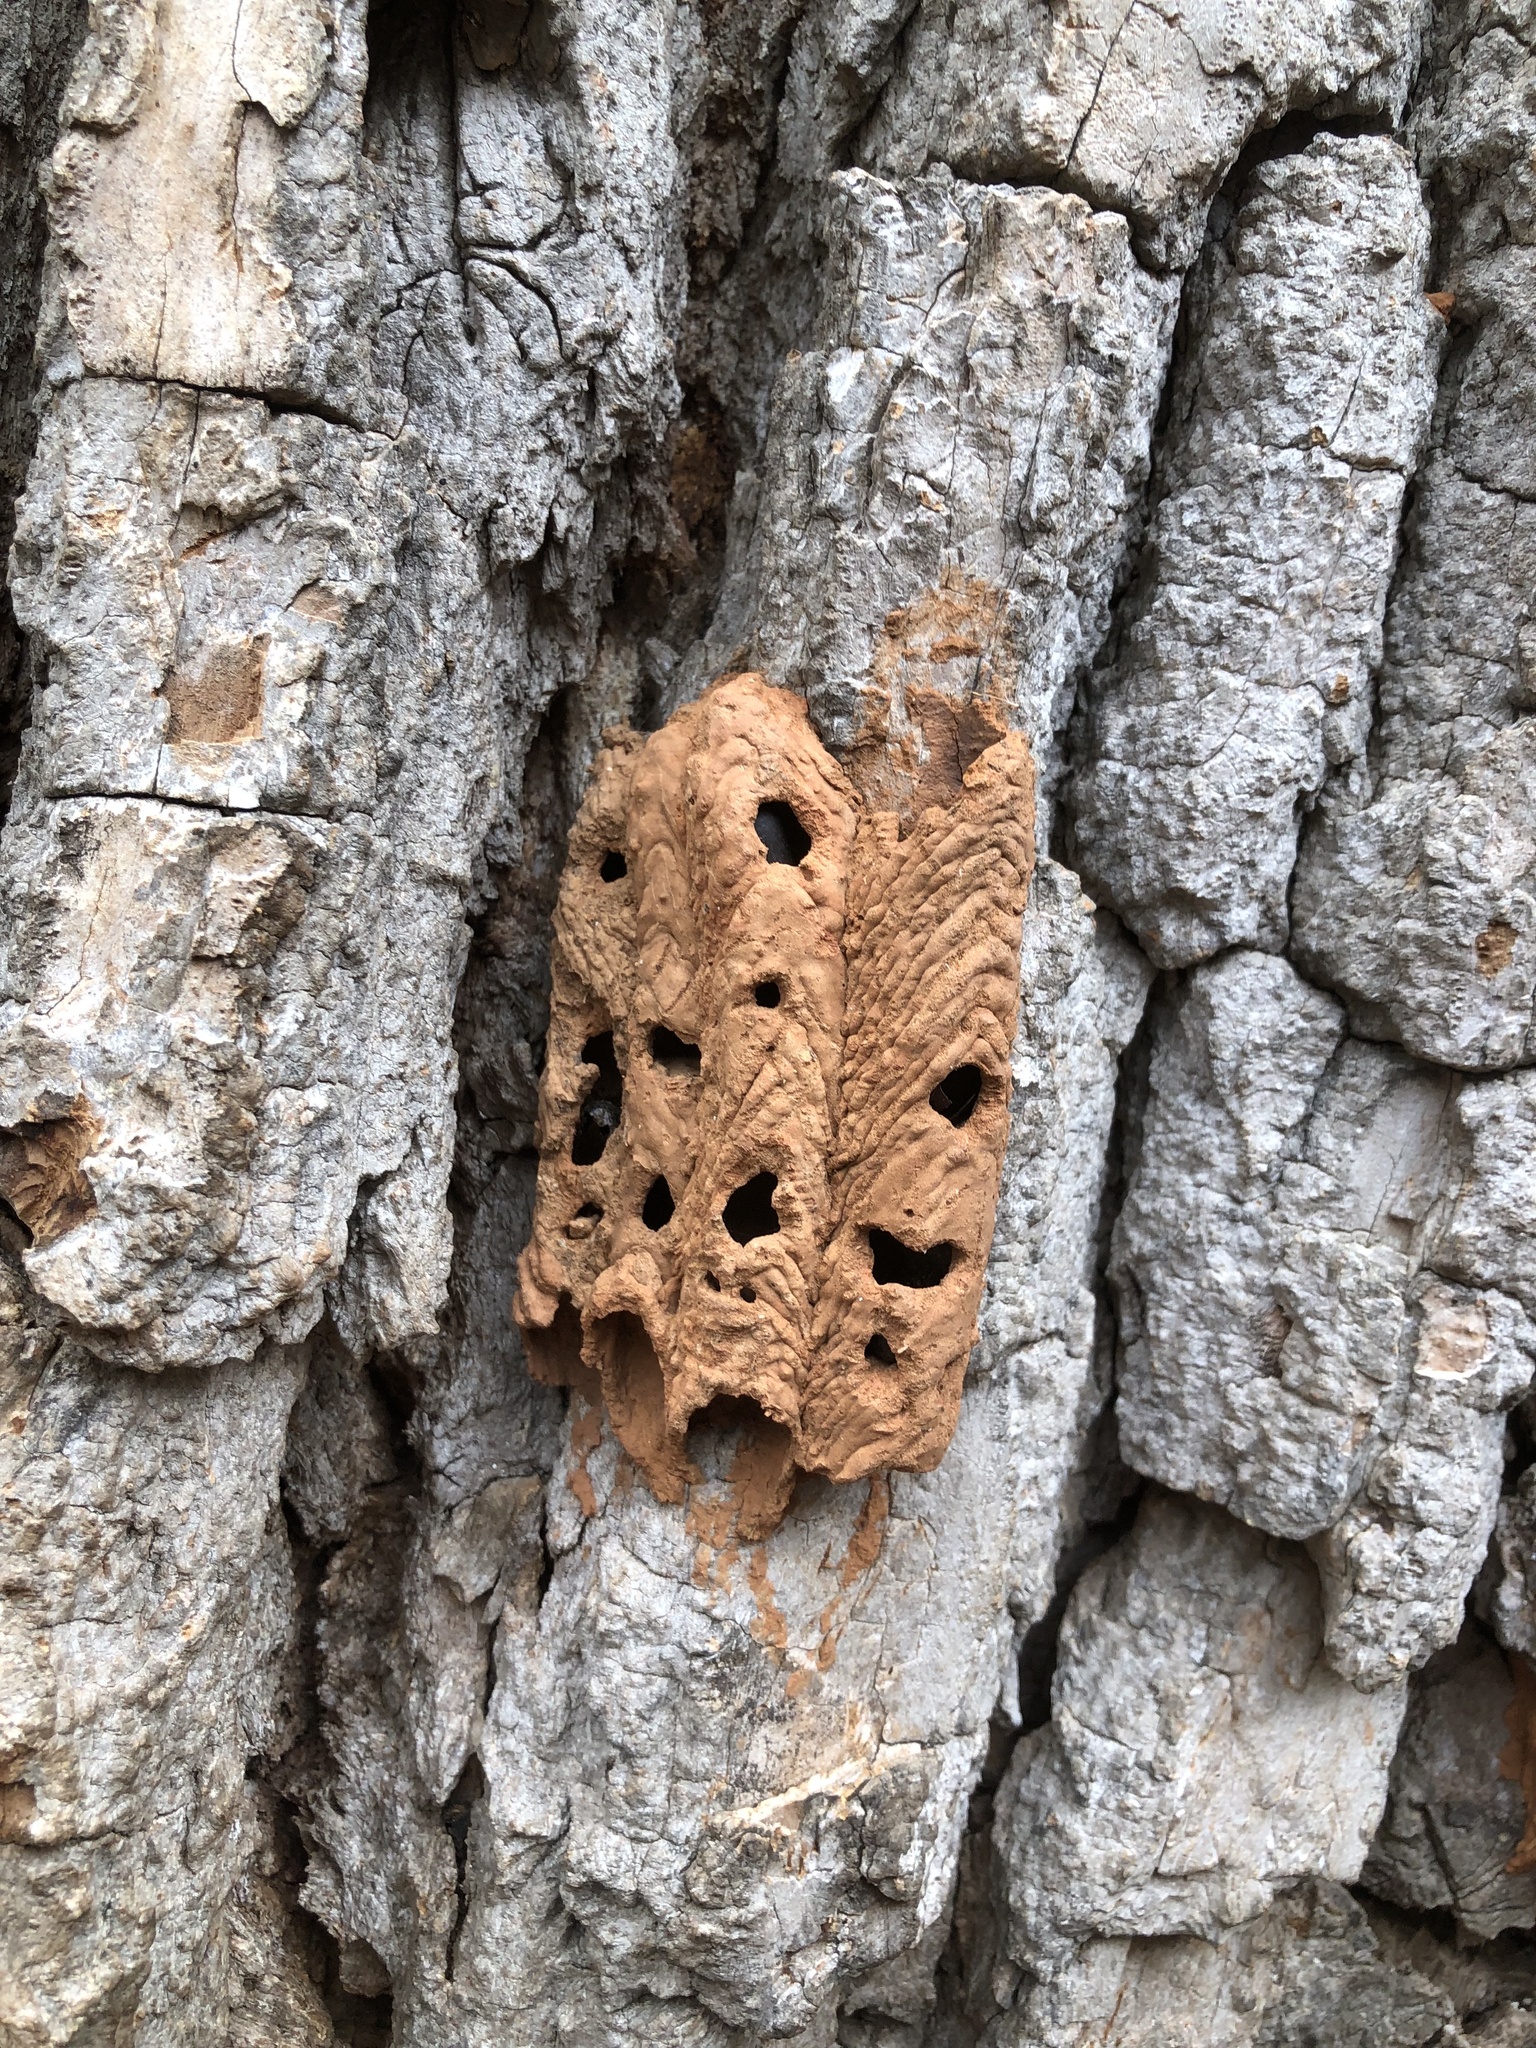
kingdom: Animalia
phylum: Arthropoda
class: Insecta
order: Hymenoptera
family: Crabronidae
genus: Trypoxylon
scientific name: Trypoxylon politum
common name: Organ-pipe mud-dauber wasp
